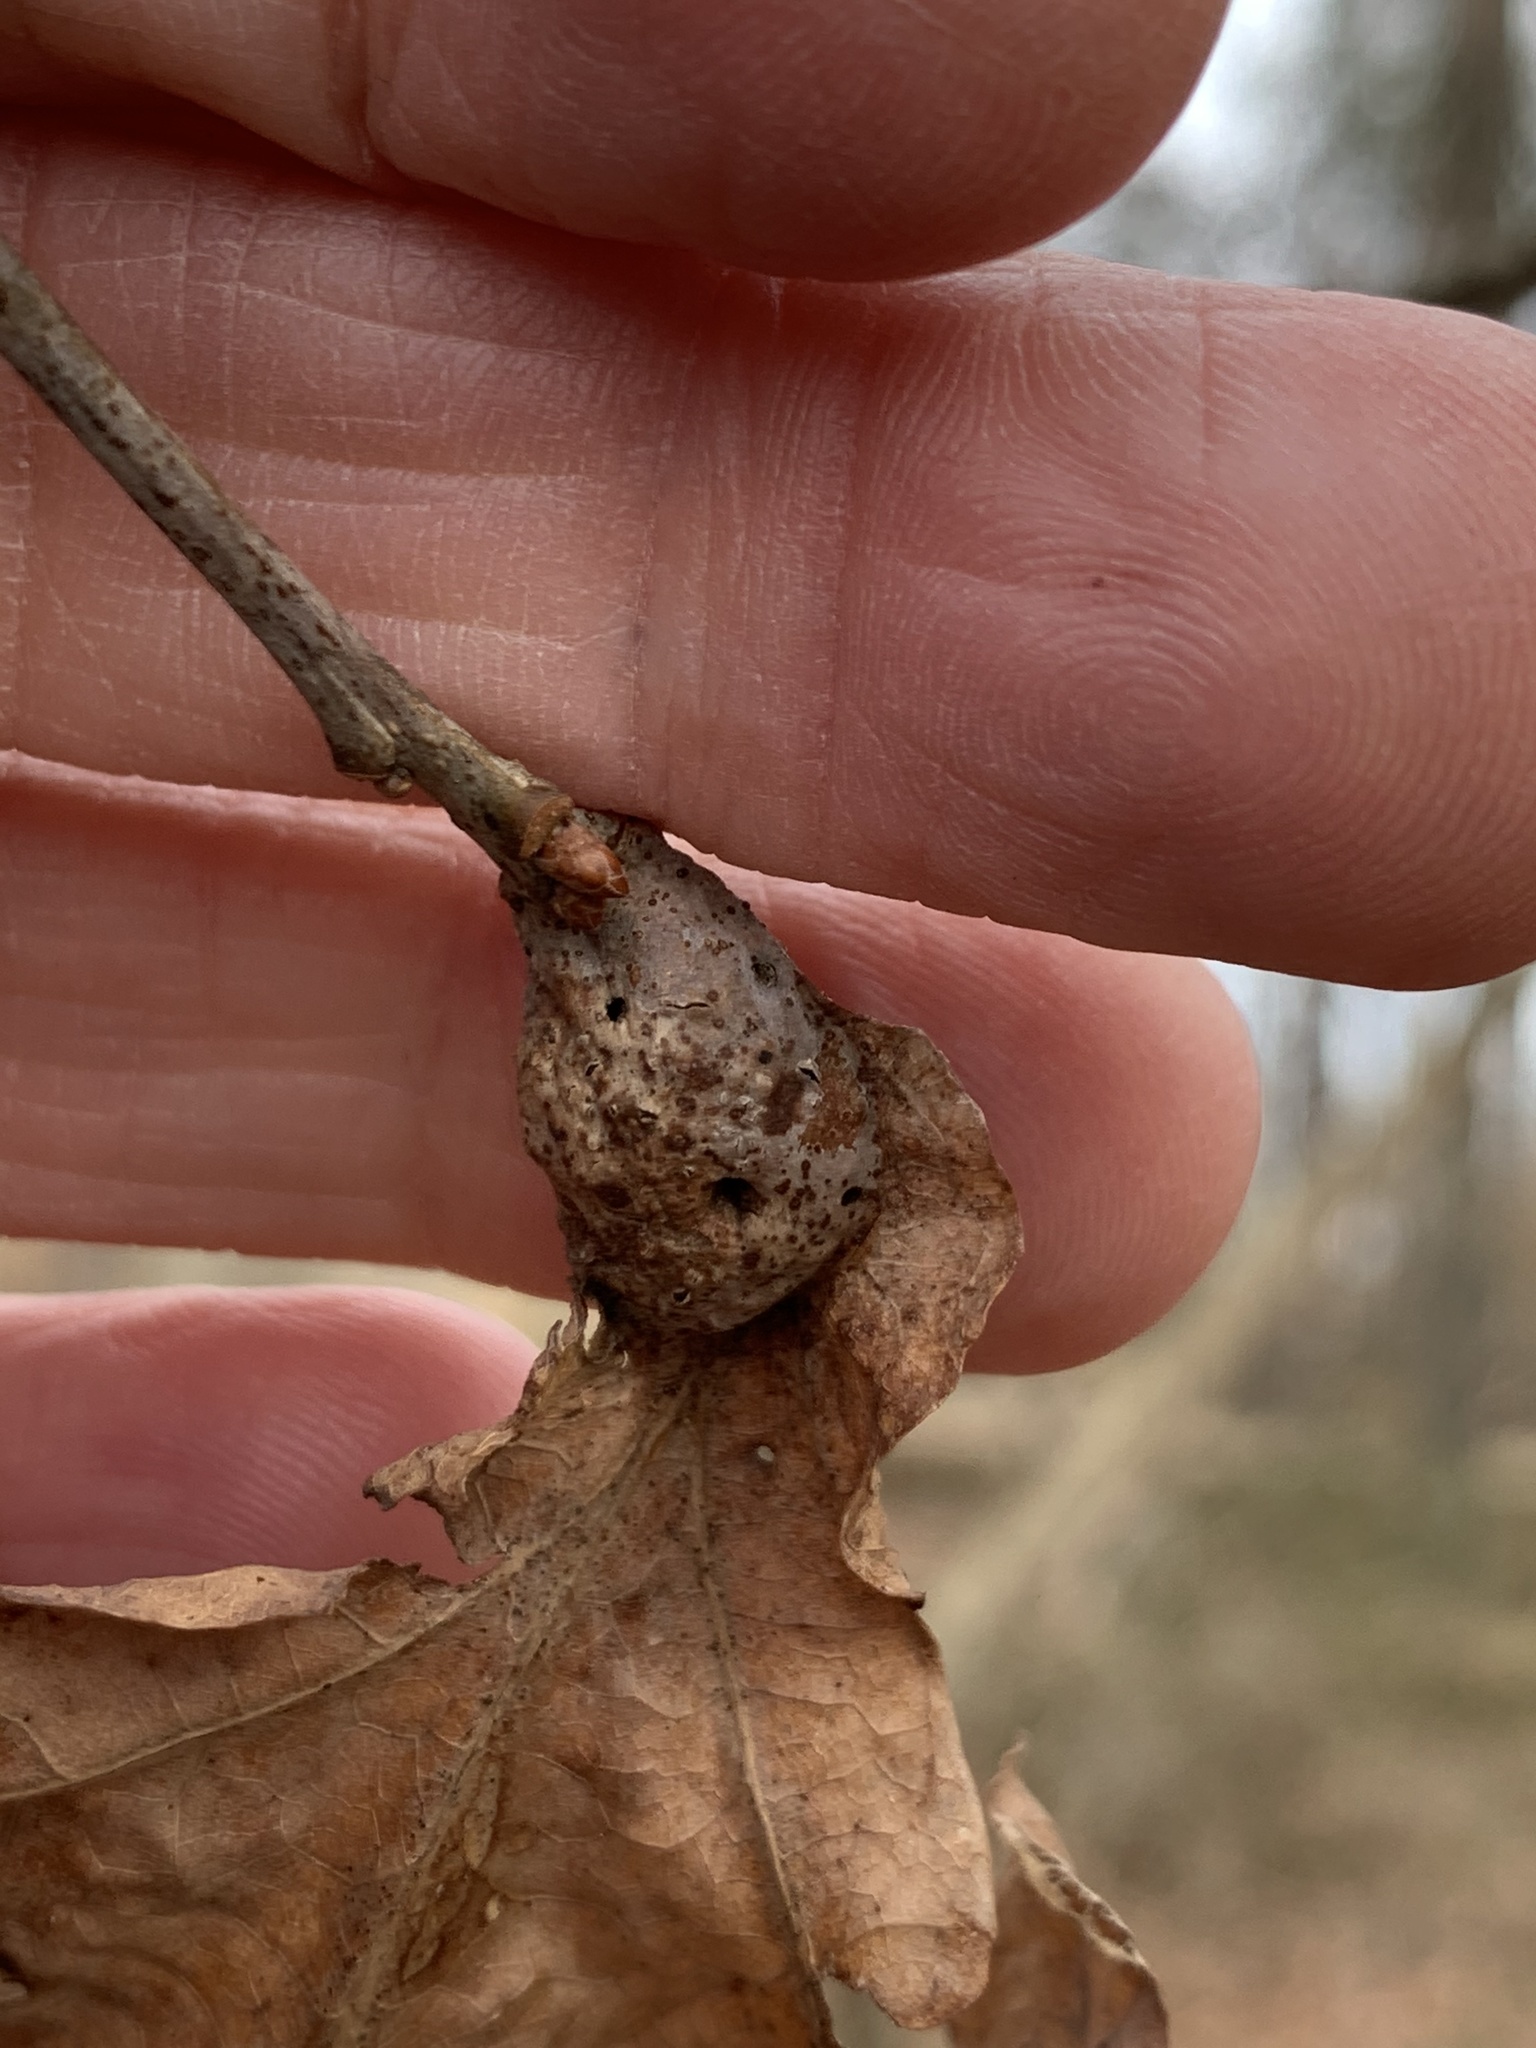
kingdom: Animalia
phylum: Arthropoda
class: Insecta
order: Hymenoptera
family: Cynipidae
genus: Andricus
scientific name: Andricus
